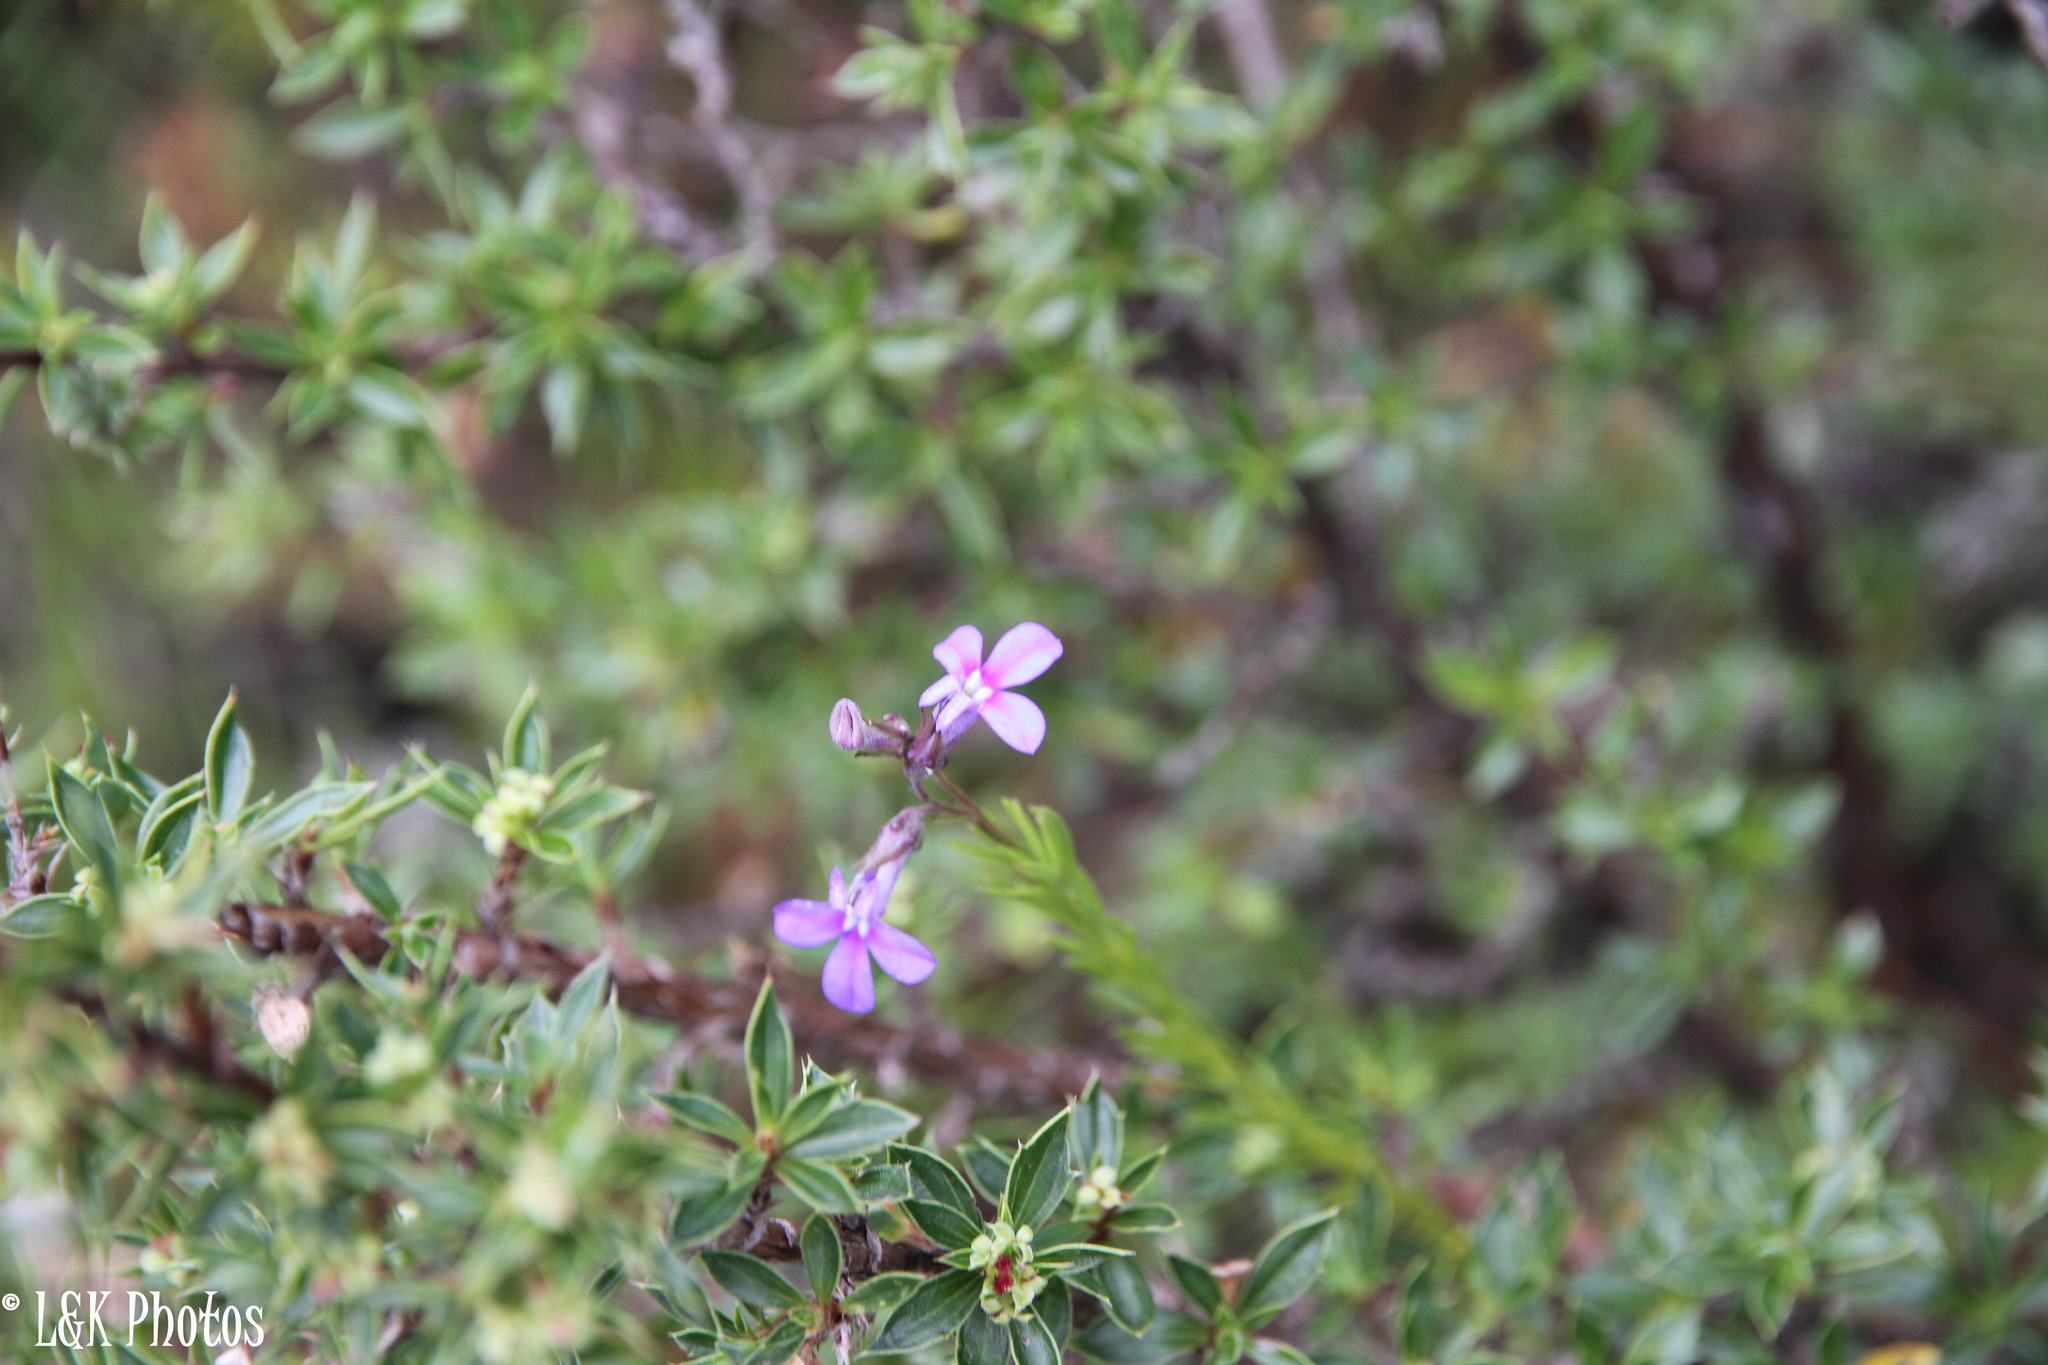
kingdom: Plantae
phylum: Tracheophyta
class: Magnoliopsida
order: Asterales
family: Campanulaceae
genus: Lobelia
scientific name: Lobelia pinifolia
